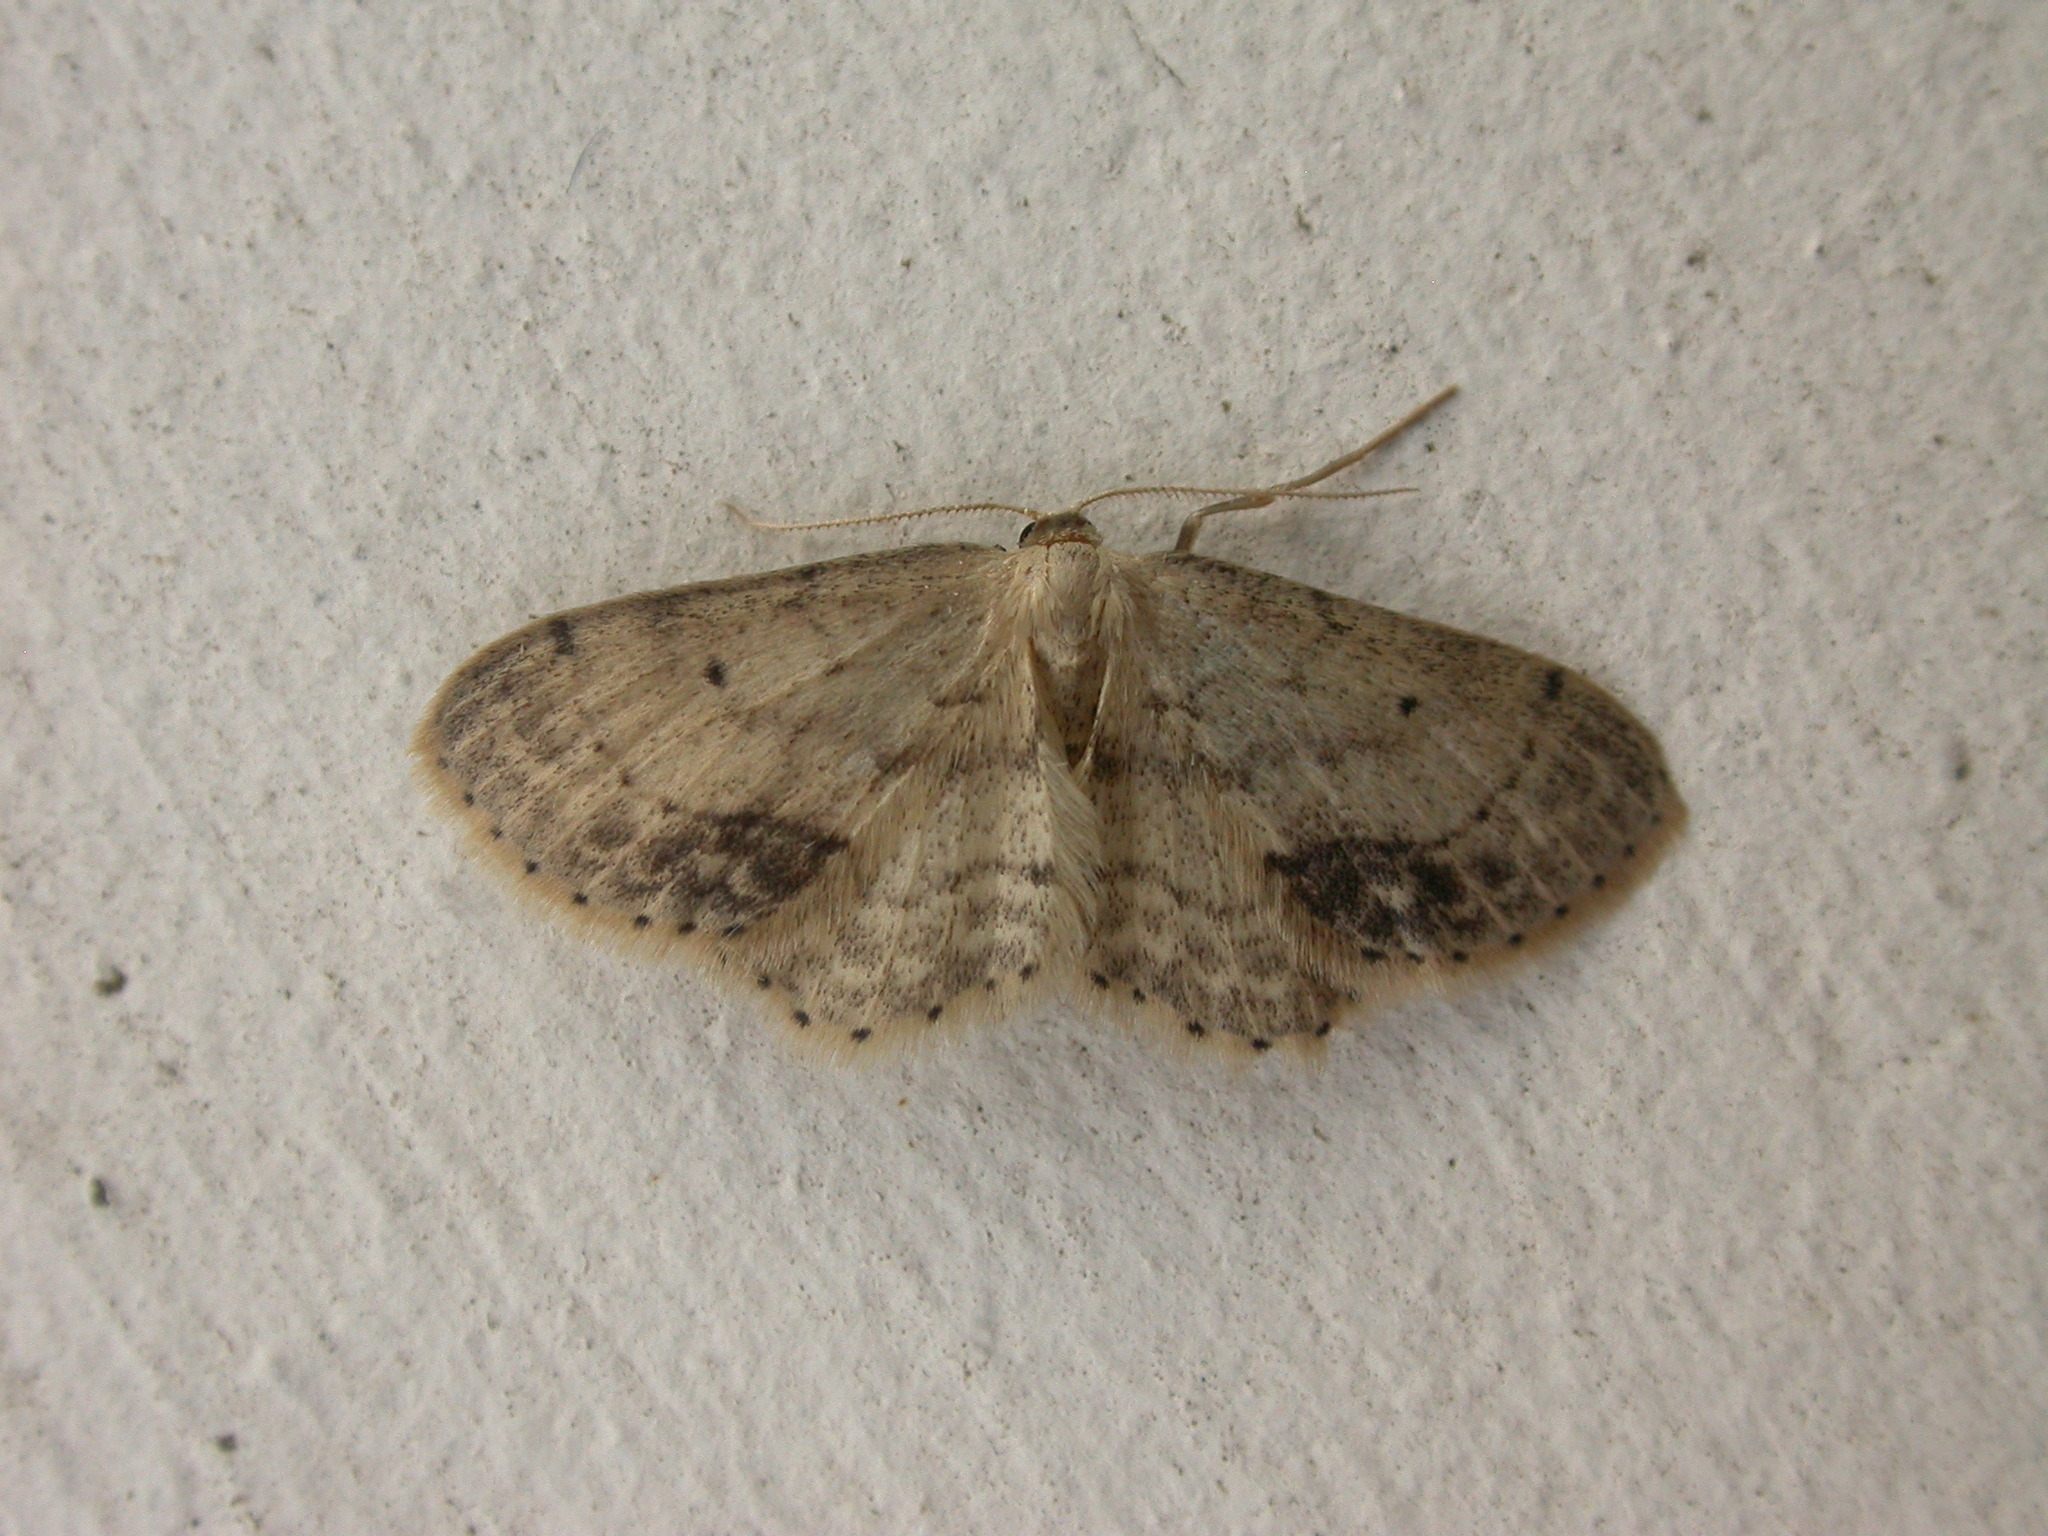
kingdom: Animalia
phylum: Arthropoda
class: Insecta
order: Lepidoptera
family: Geometridae
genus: Idaea
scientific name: Idaea dimidiata
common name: Single-dotted wave
